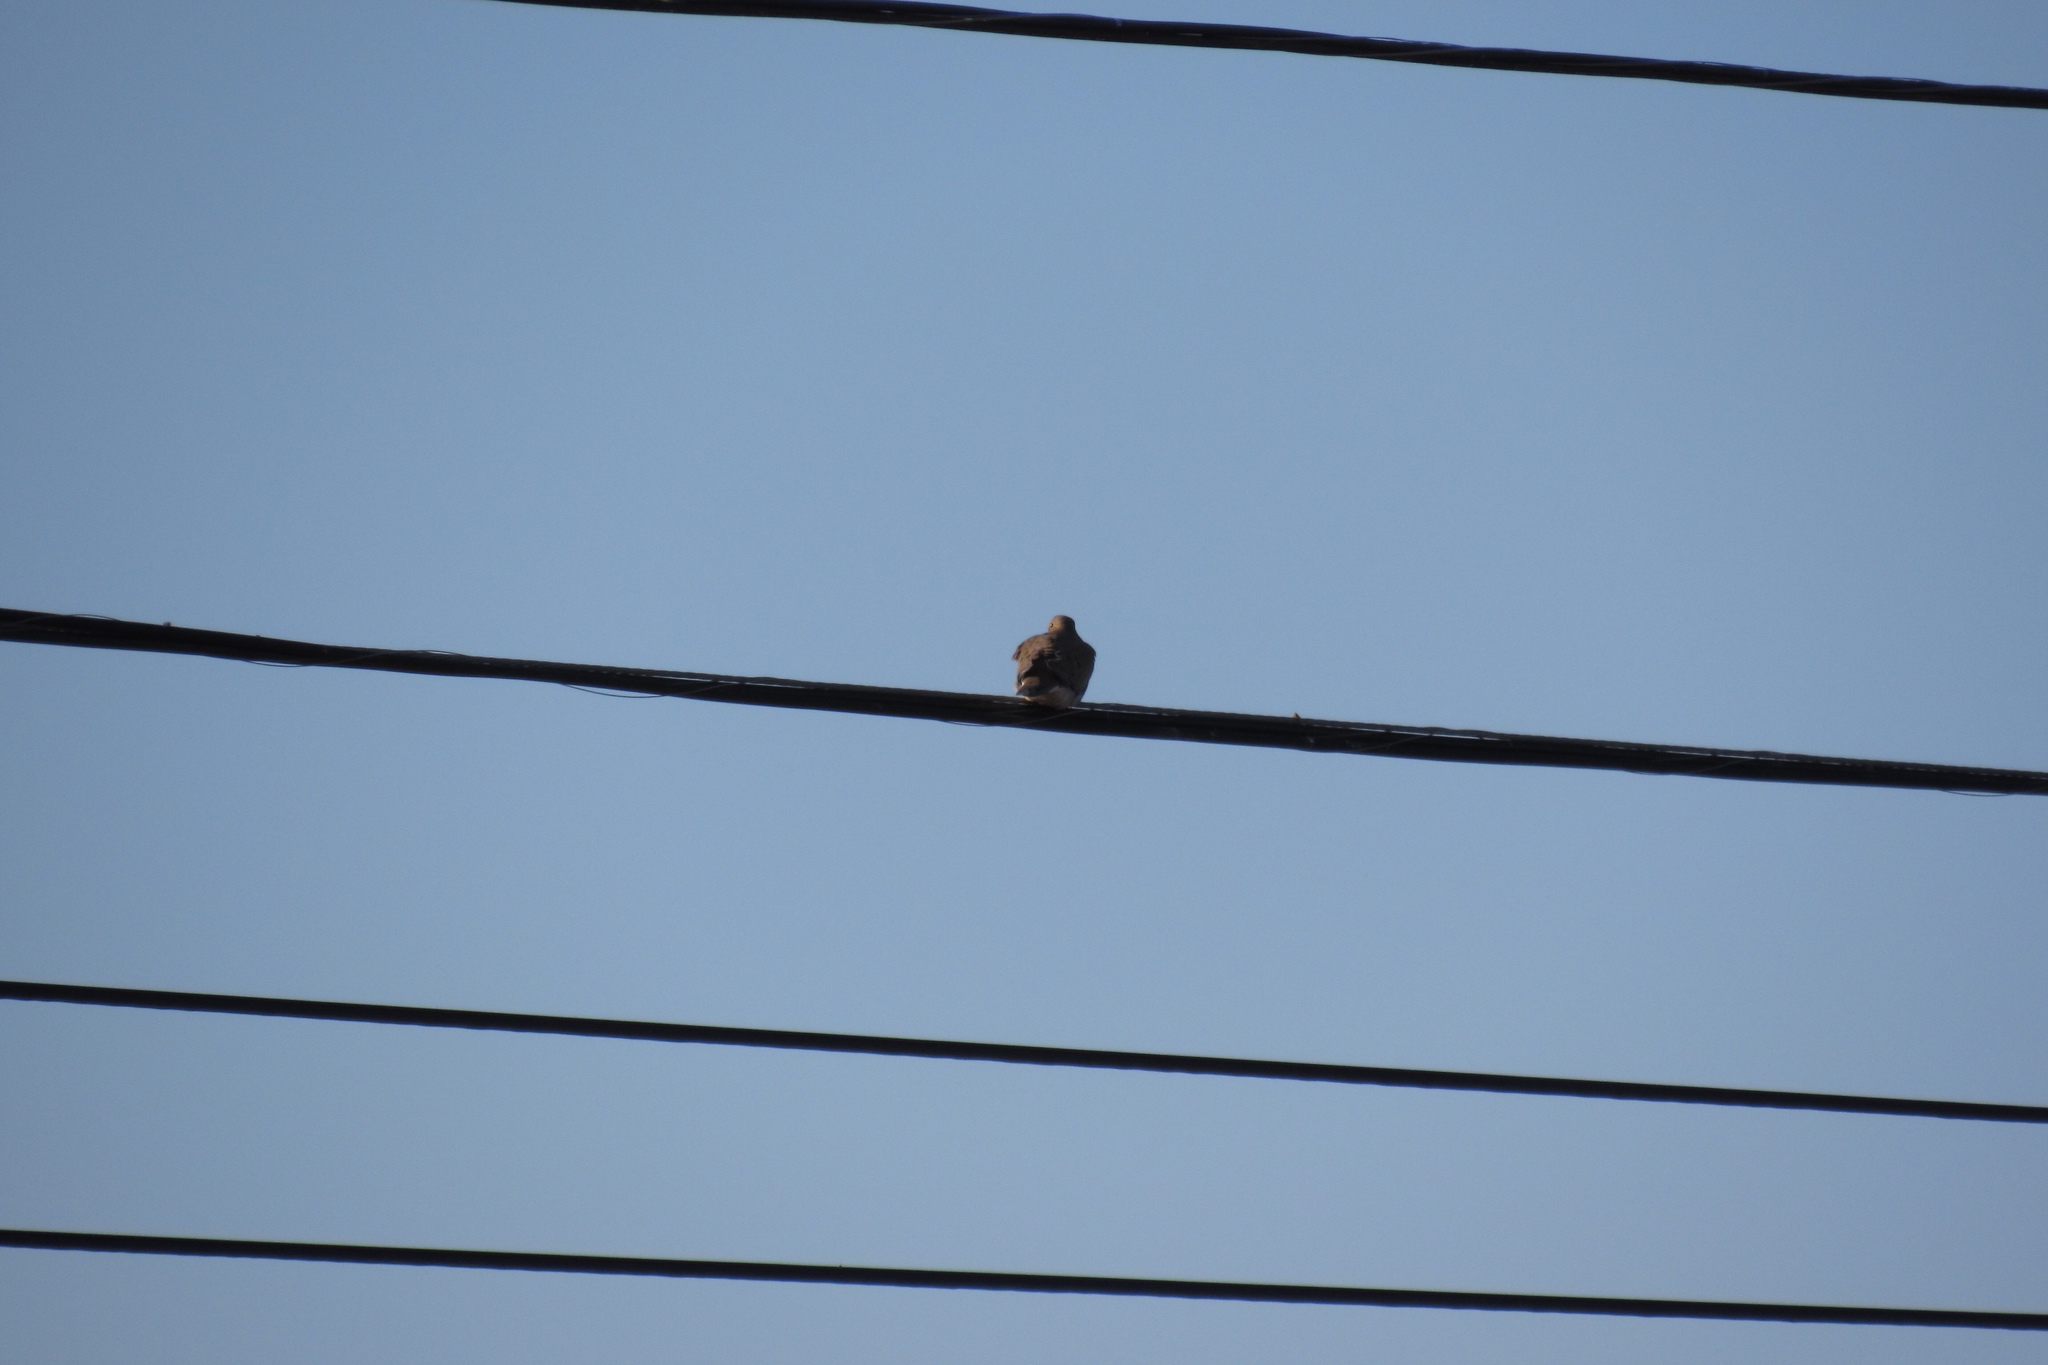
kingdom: Animalia
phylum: Chordata
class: Aves
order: Columbiformes
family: Columbidae
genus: Zenaida
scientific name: Zenaida macroura
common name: Mourning dove
